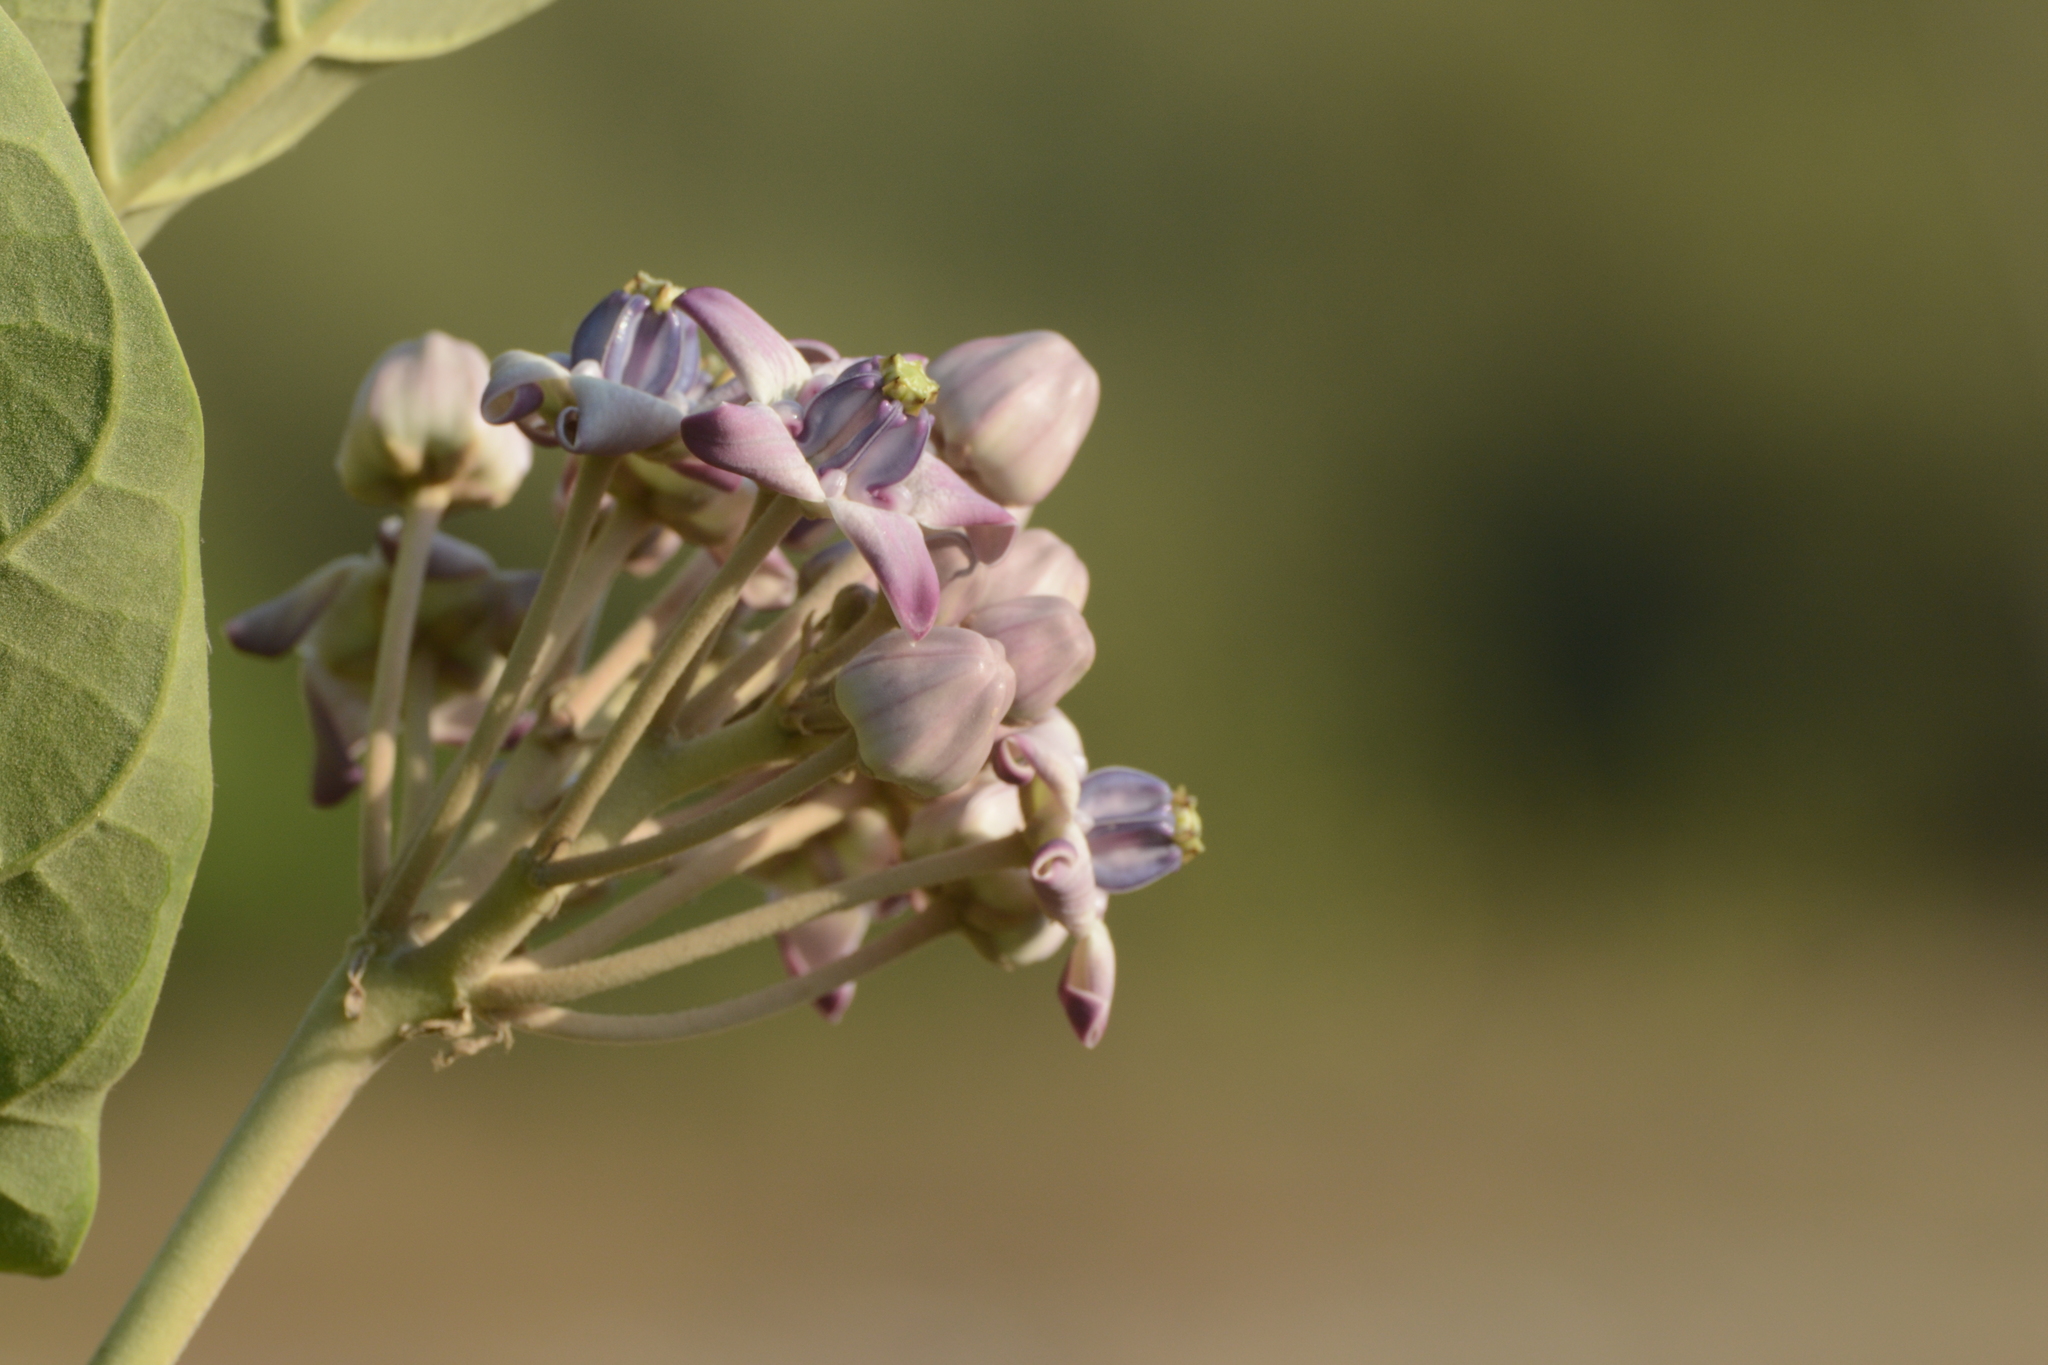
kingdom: Plantae
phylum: Tracheophyta
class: Magnoliopsida
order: Gentianales
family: Apocynaceae
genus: Calotropis
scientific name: Calotropis gigantea
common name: Crown flower
